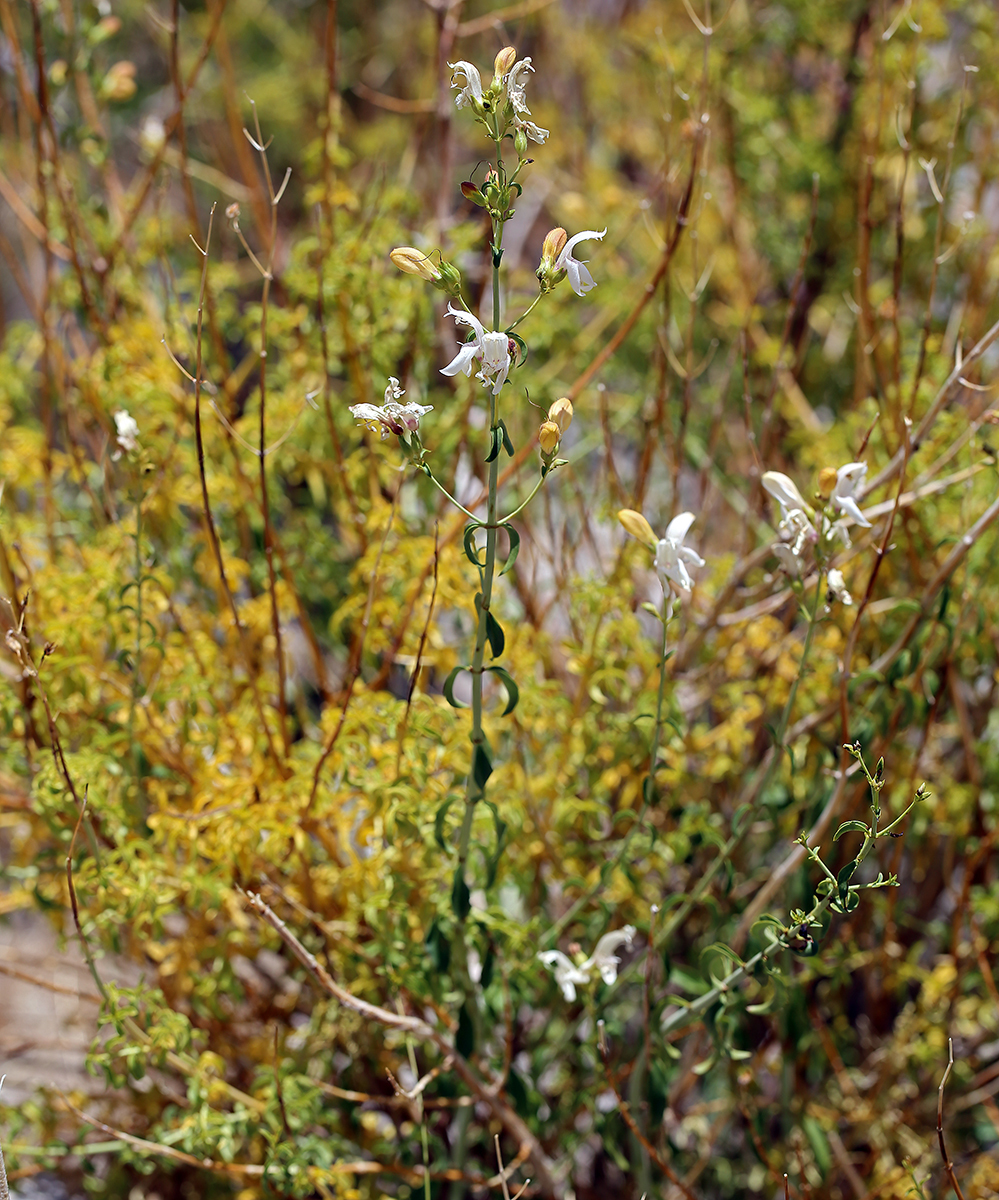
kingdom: Plantae
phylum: Tracheophyta
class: Magnoliopsida
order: Lamiales
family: Plantaginaceae
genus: Keckiella
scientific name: Keckiella breviflora
